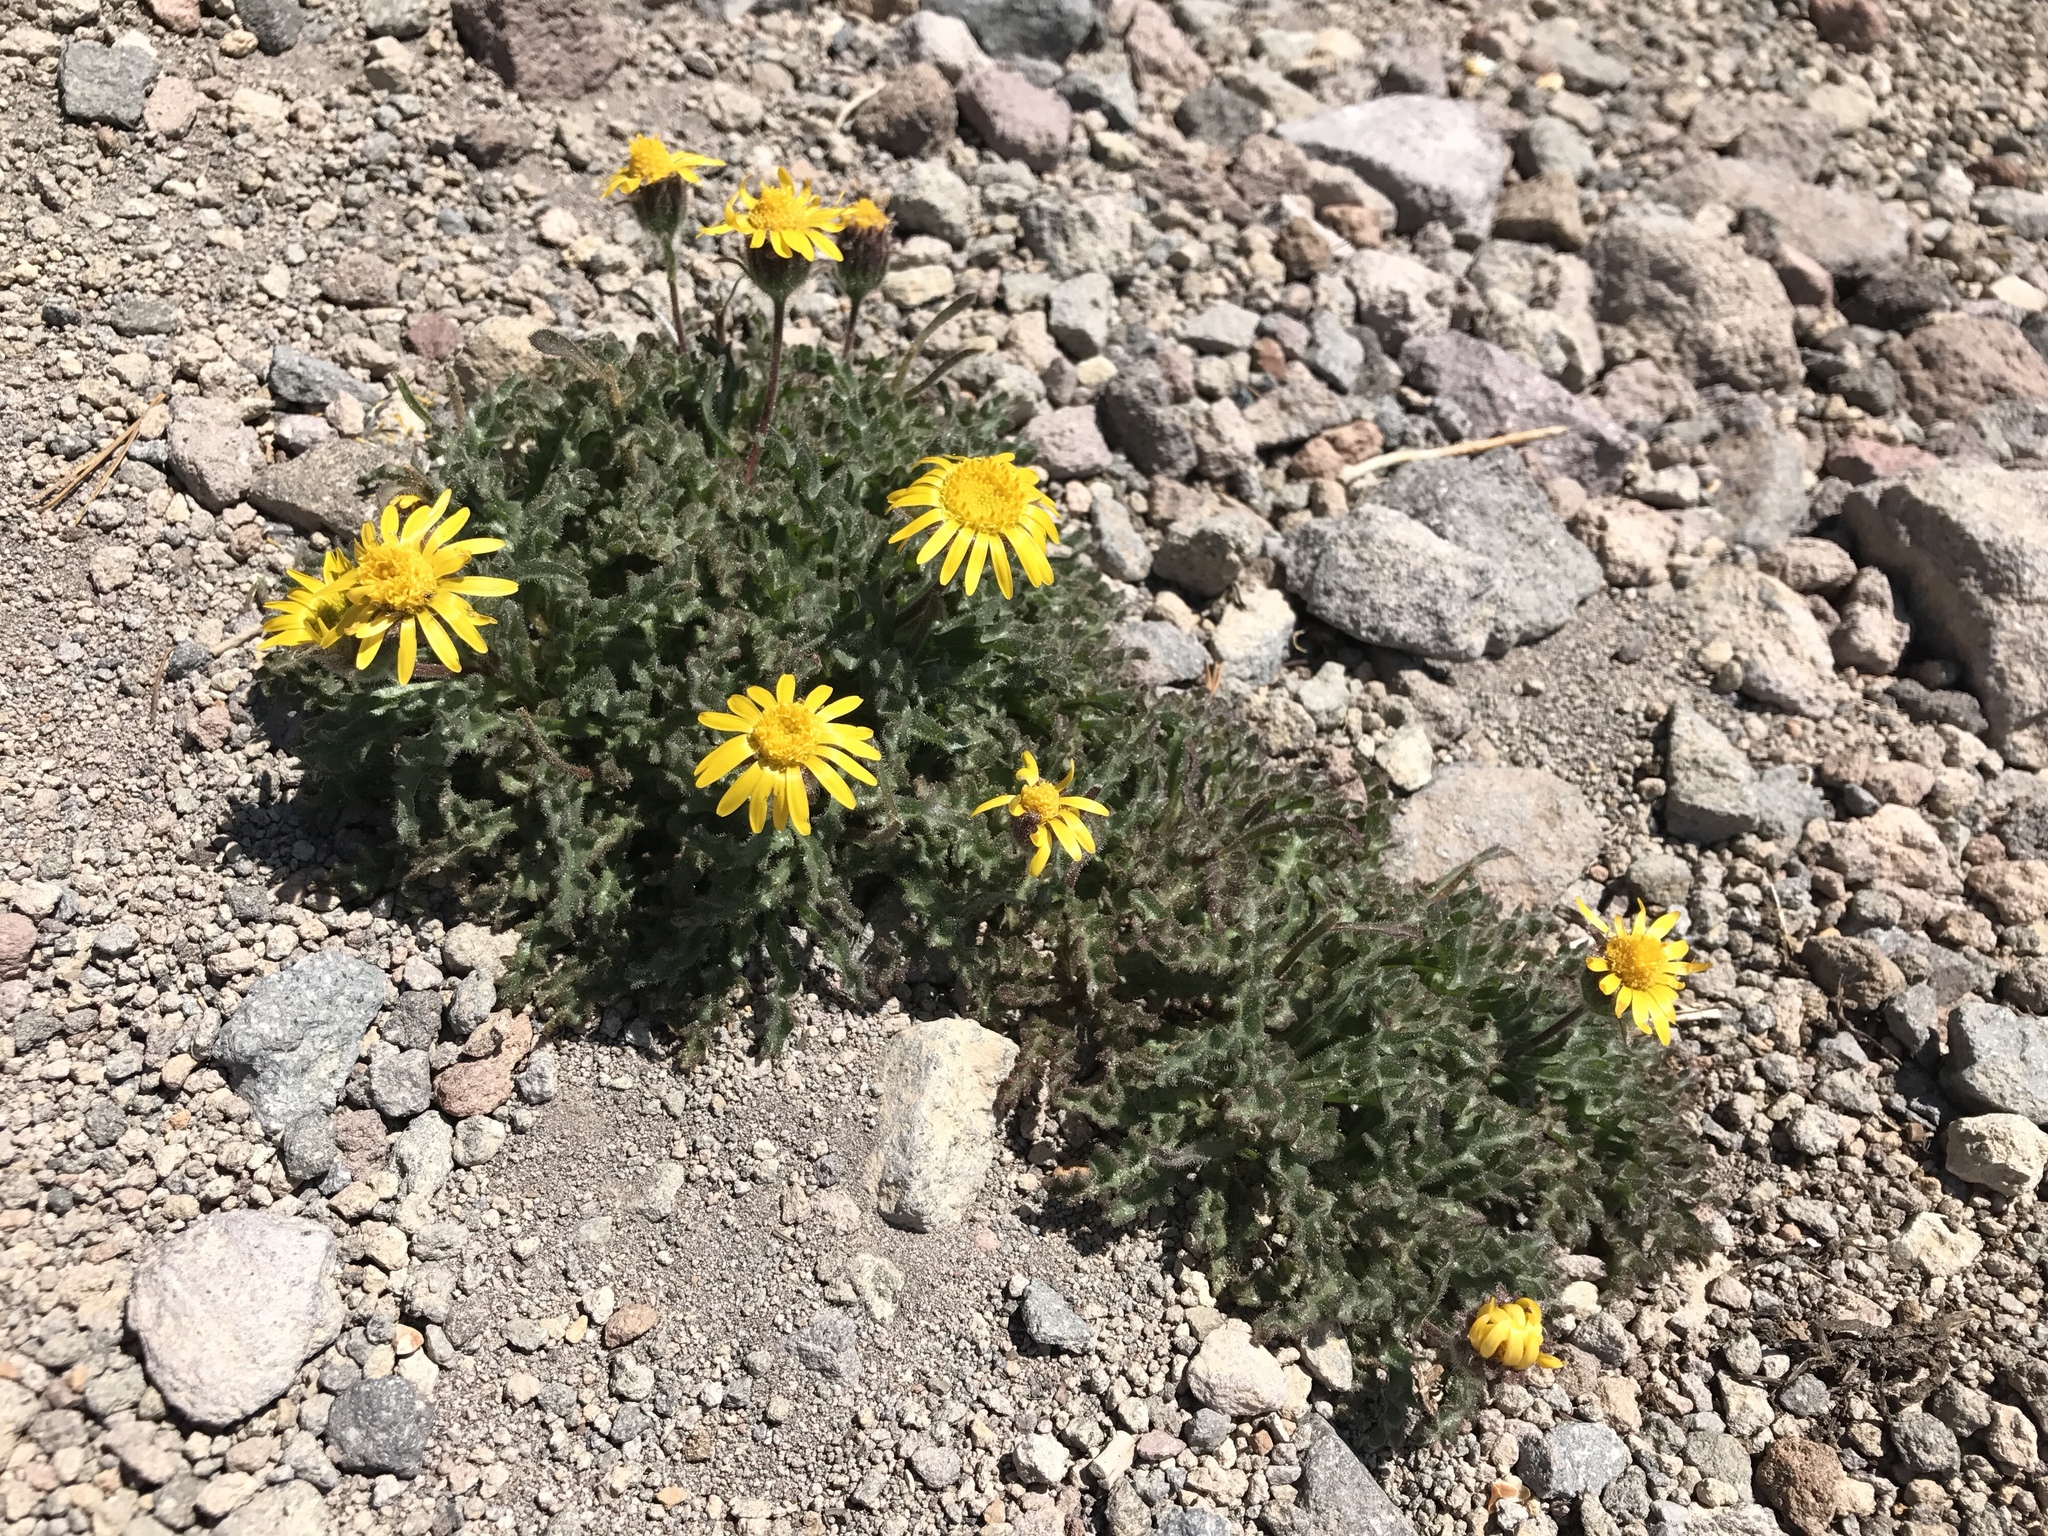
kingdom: Plantae
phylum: Tracheophyta
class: Magnoliopsida
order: Asterales
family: Asteraceae
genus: Hulsea
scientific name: Hulsea nana
